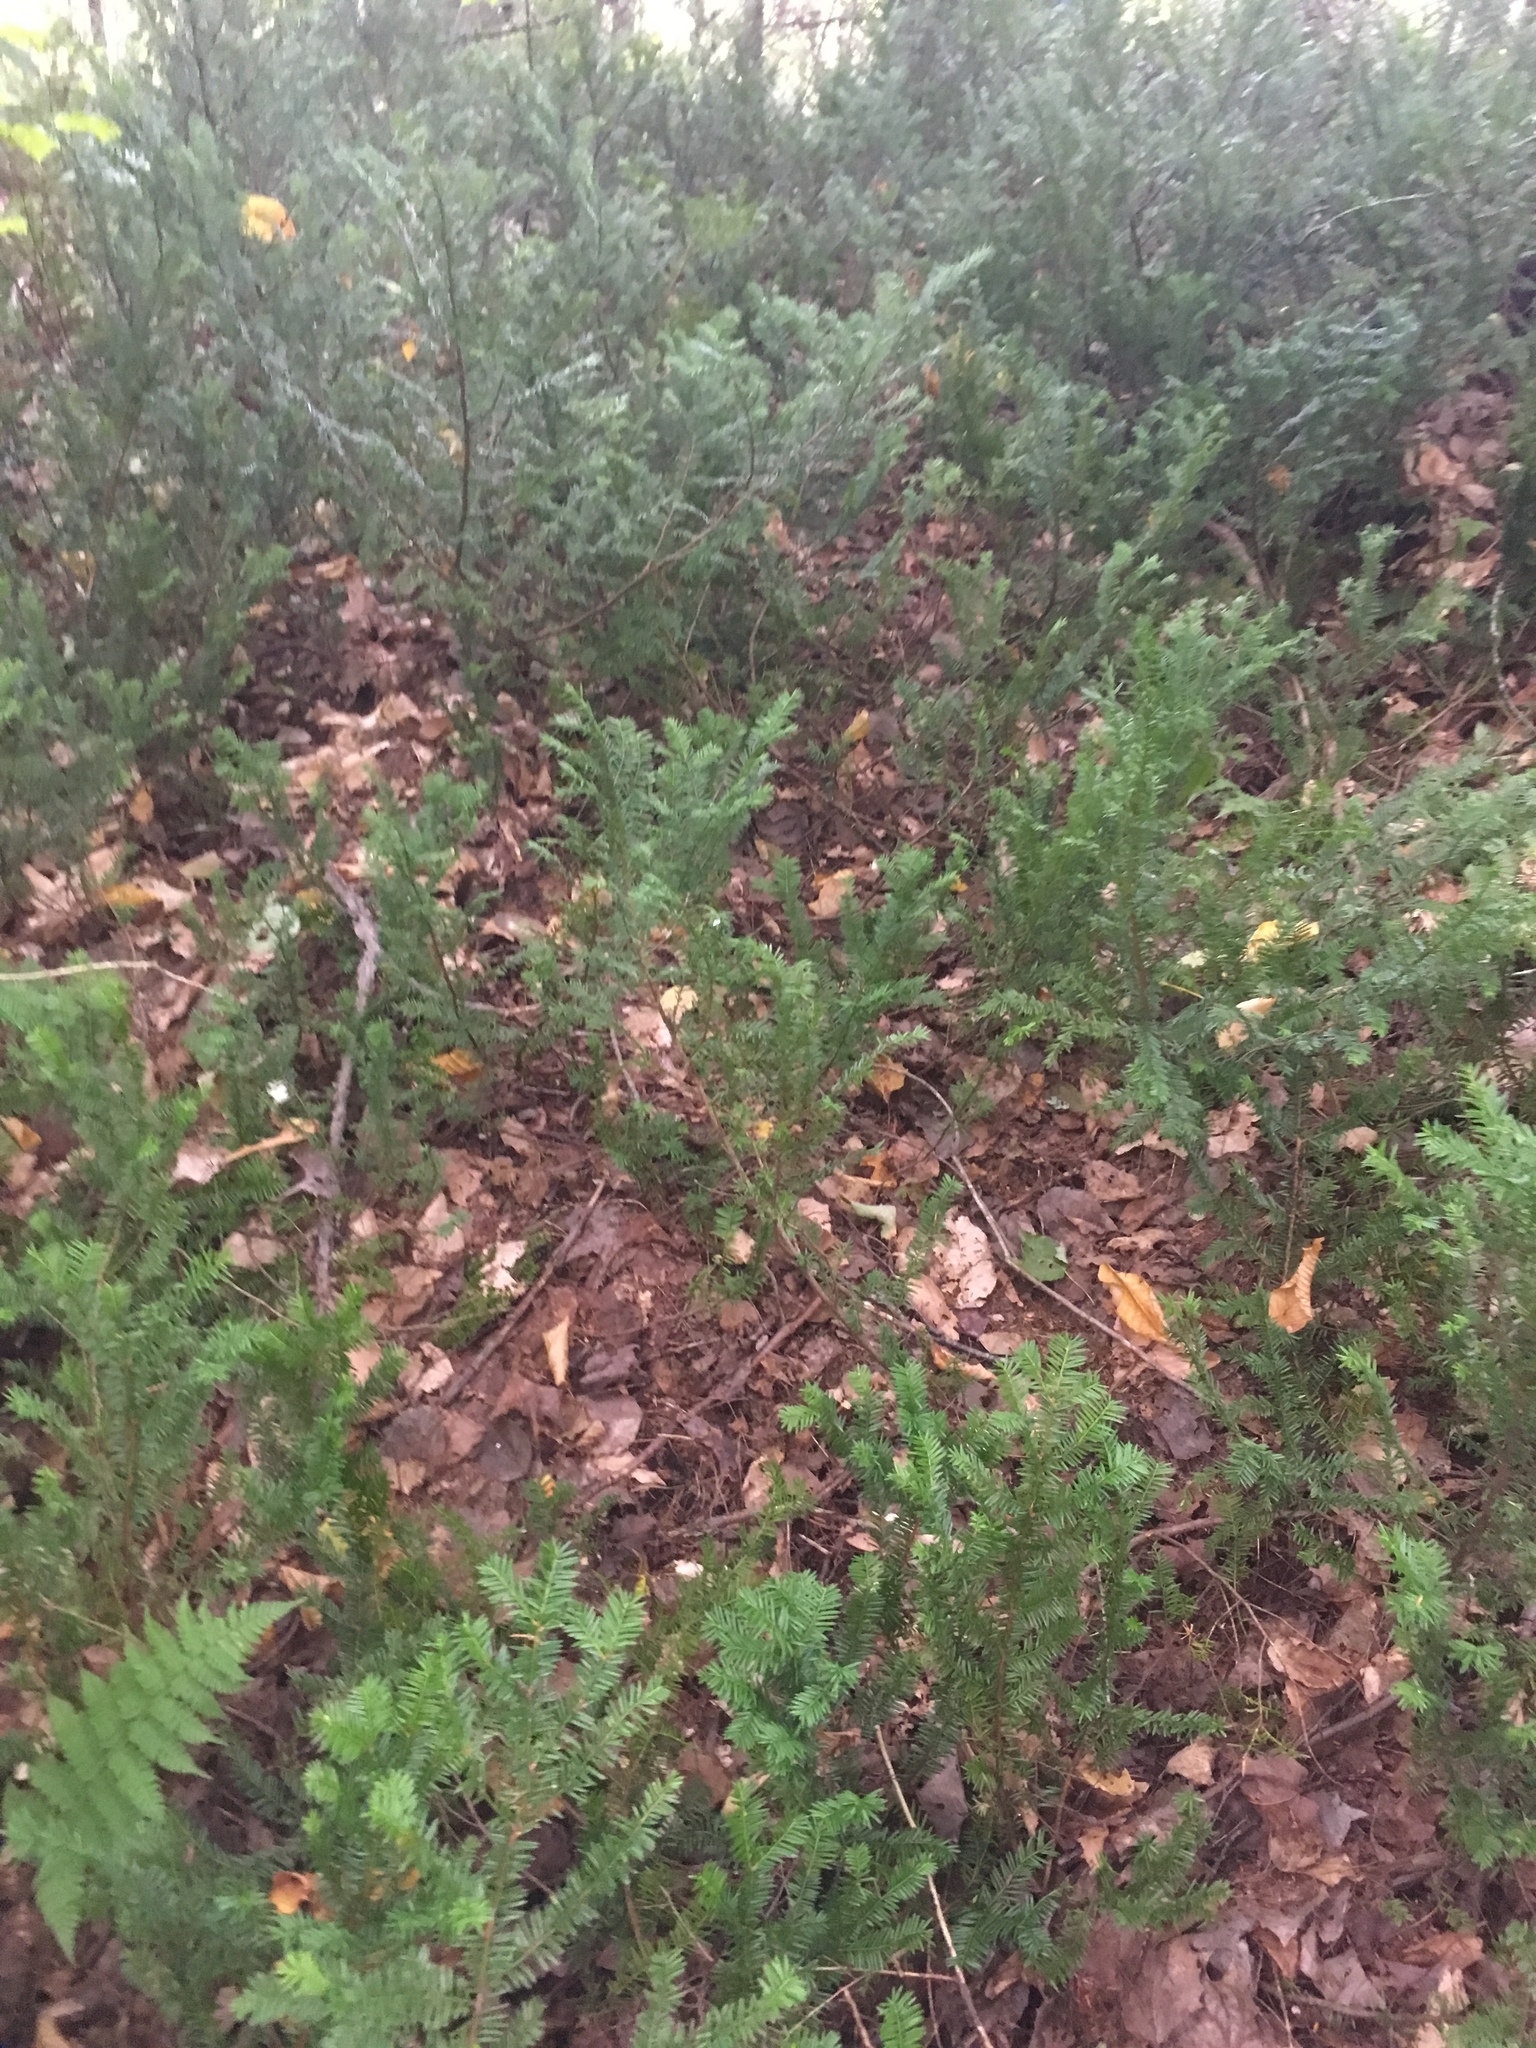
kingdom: Plantae
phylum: Tracheophyta
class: Pinopsida
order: Pinales
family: Taxaceae
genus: Taxus
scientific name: Taxus canadensis
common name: American yew
